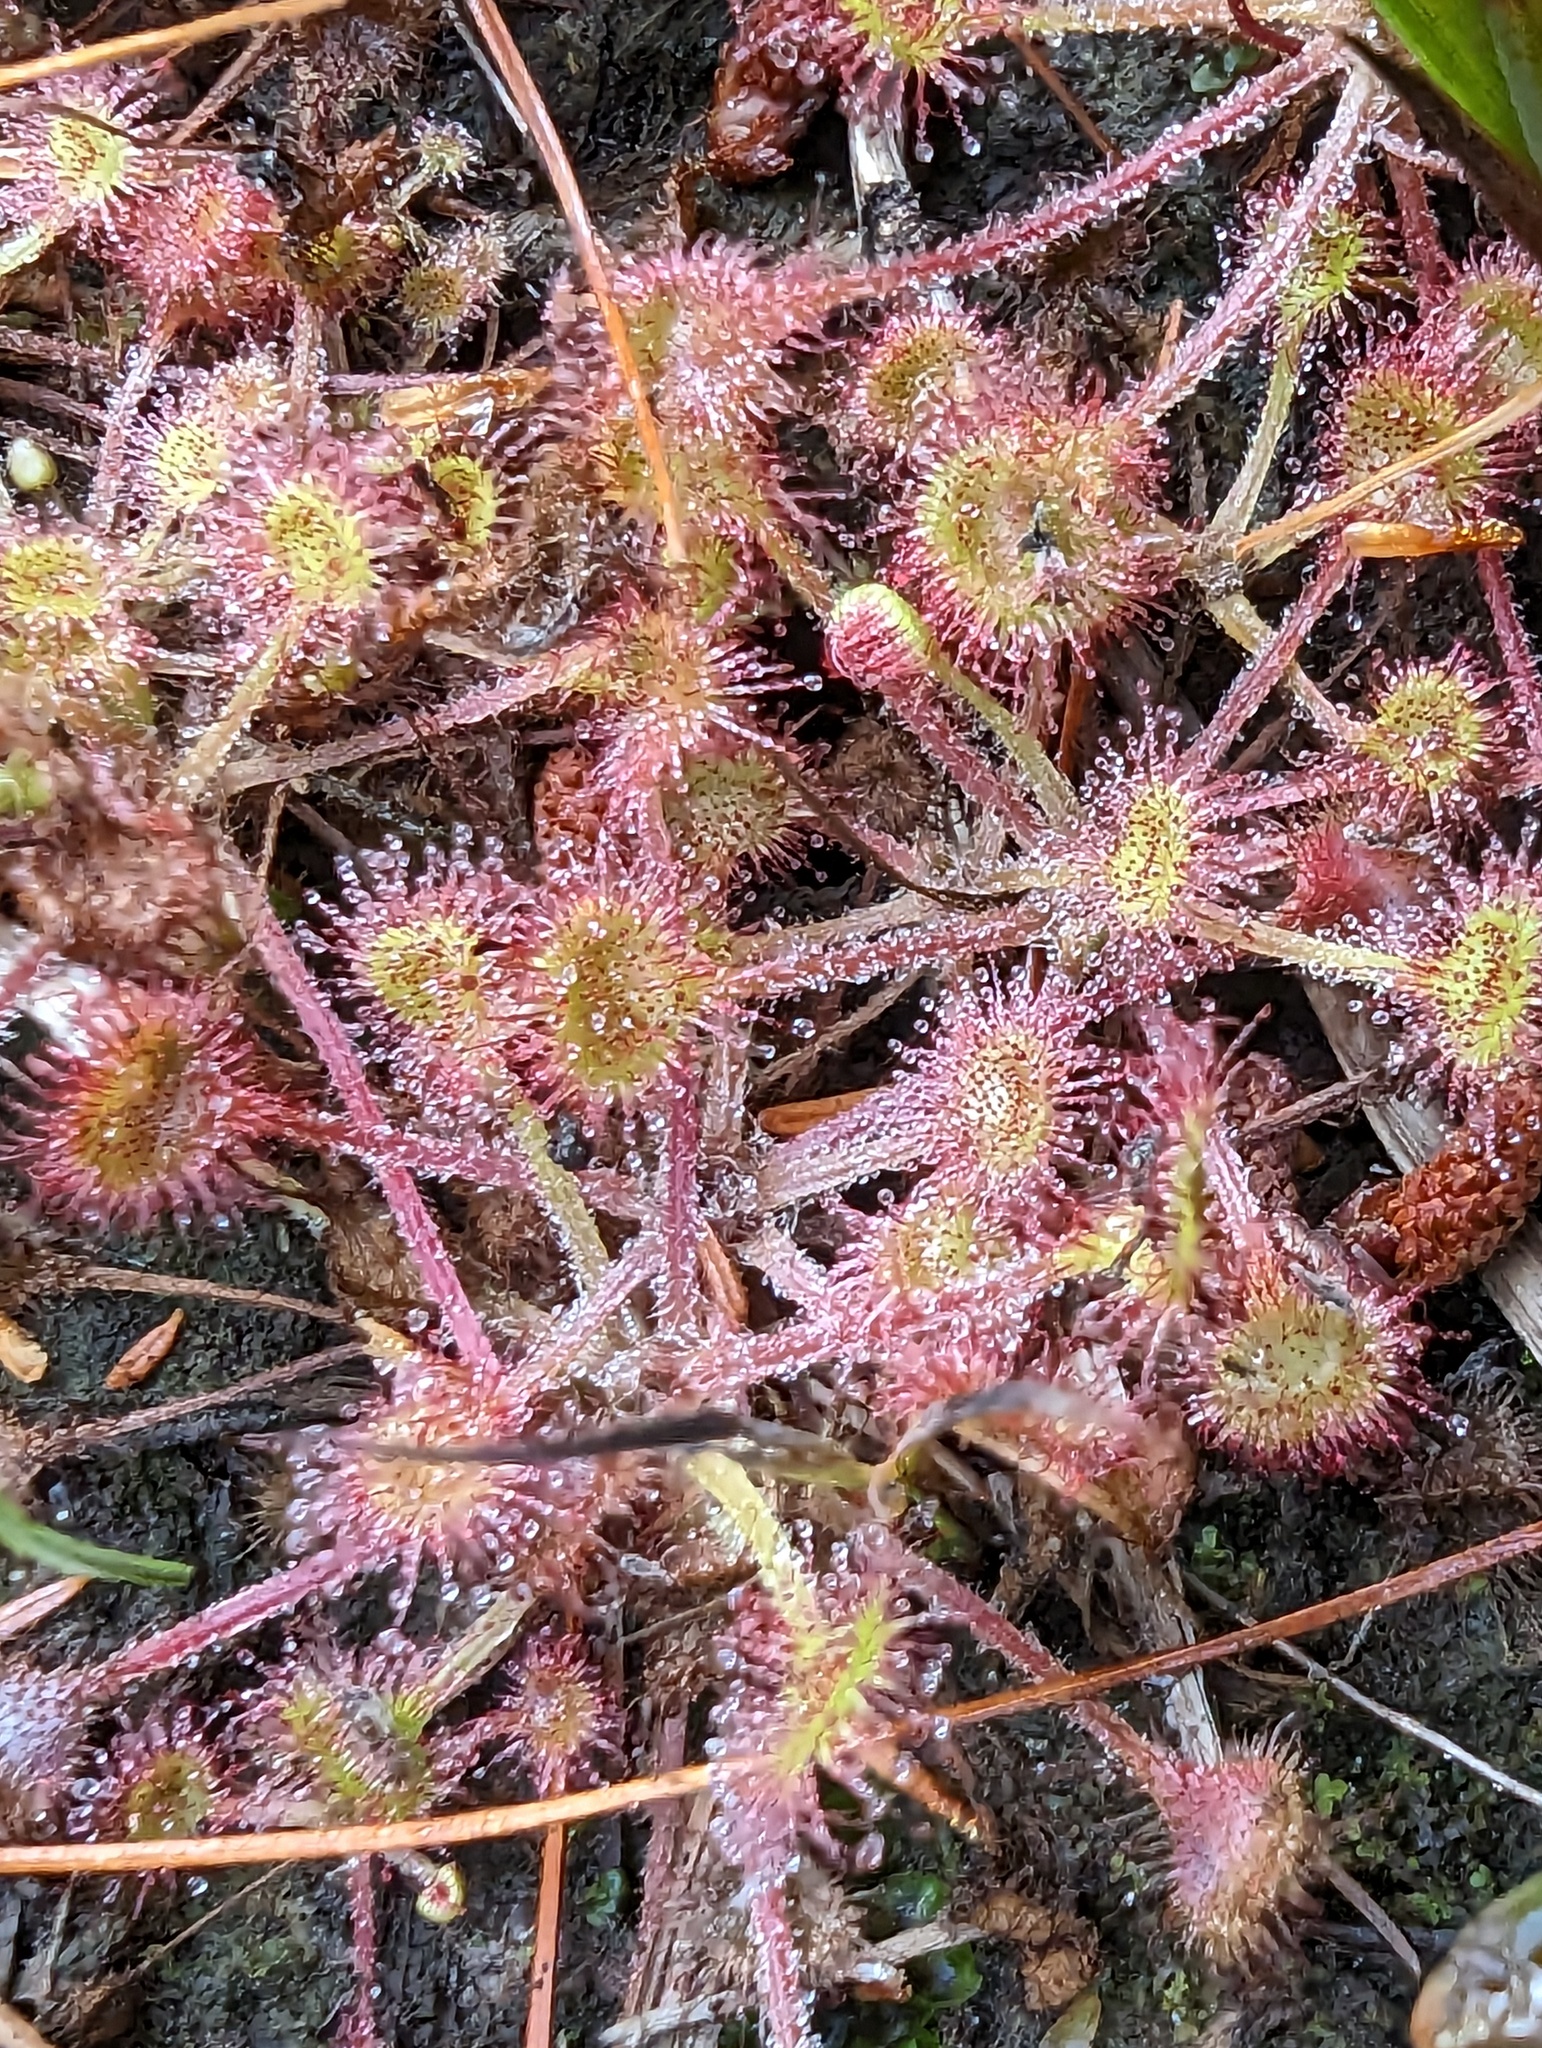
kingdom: Plantae
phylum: Tracheophyta
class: Magnoliopsida
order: Caryophyllales
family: Droseraceae
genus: Drosera
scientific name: Drosera rotundifolia
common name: Round-leaved sundew
